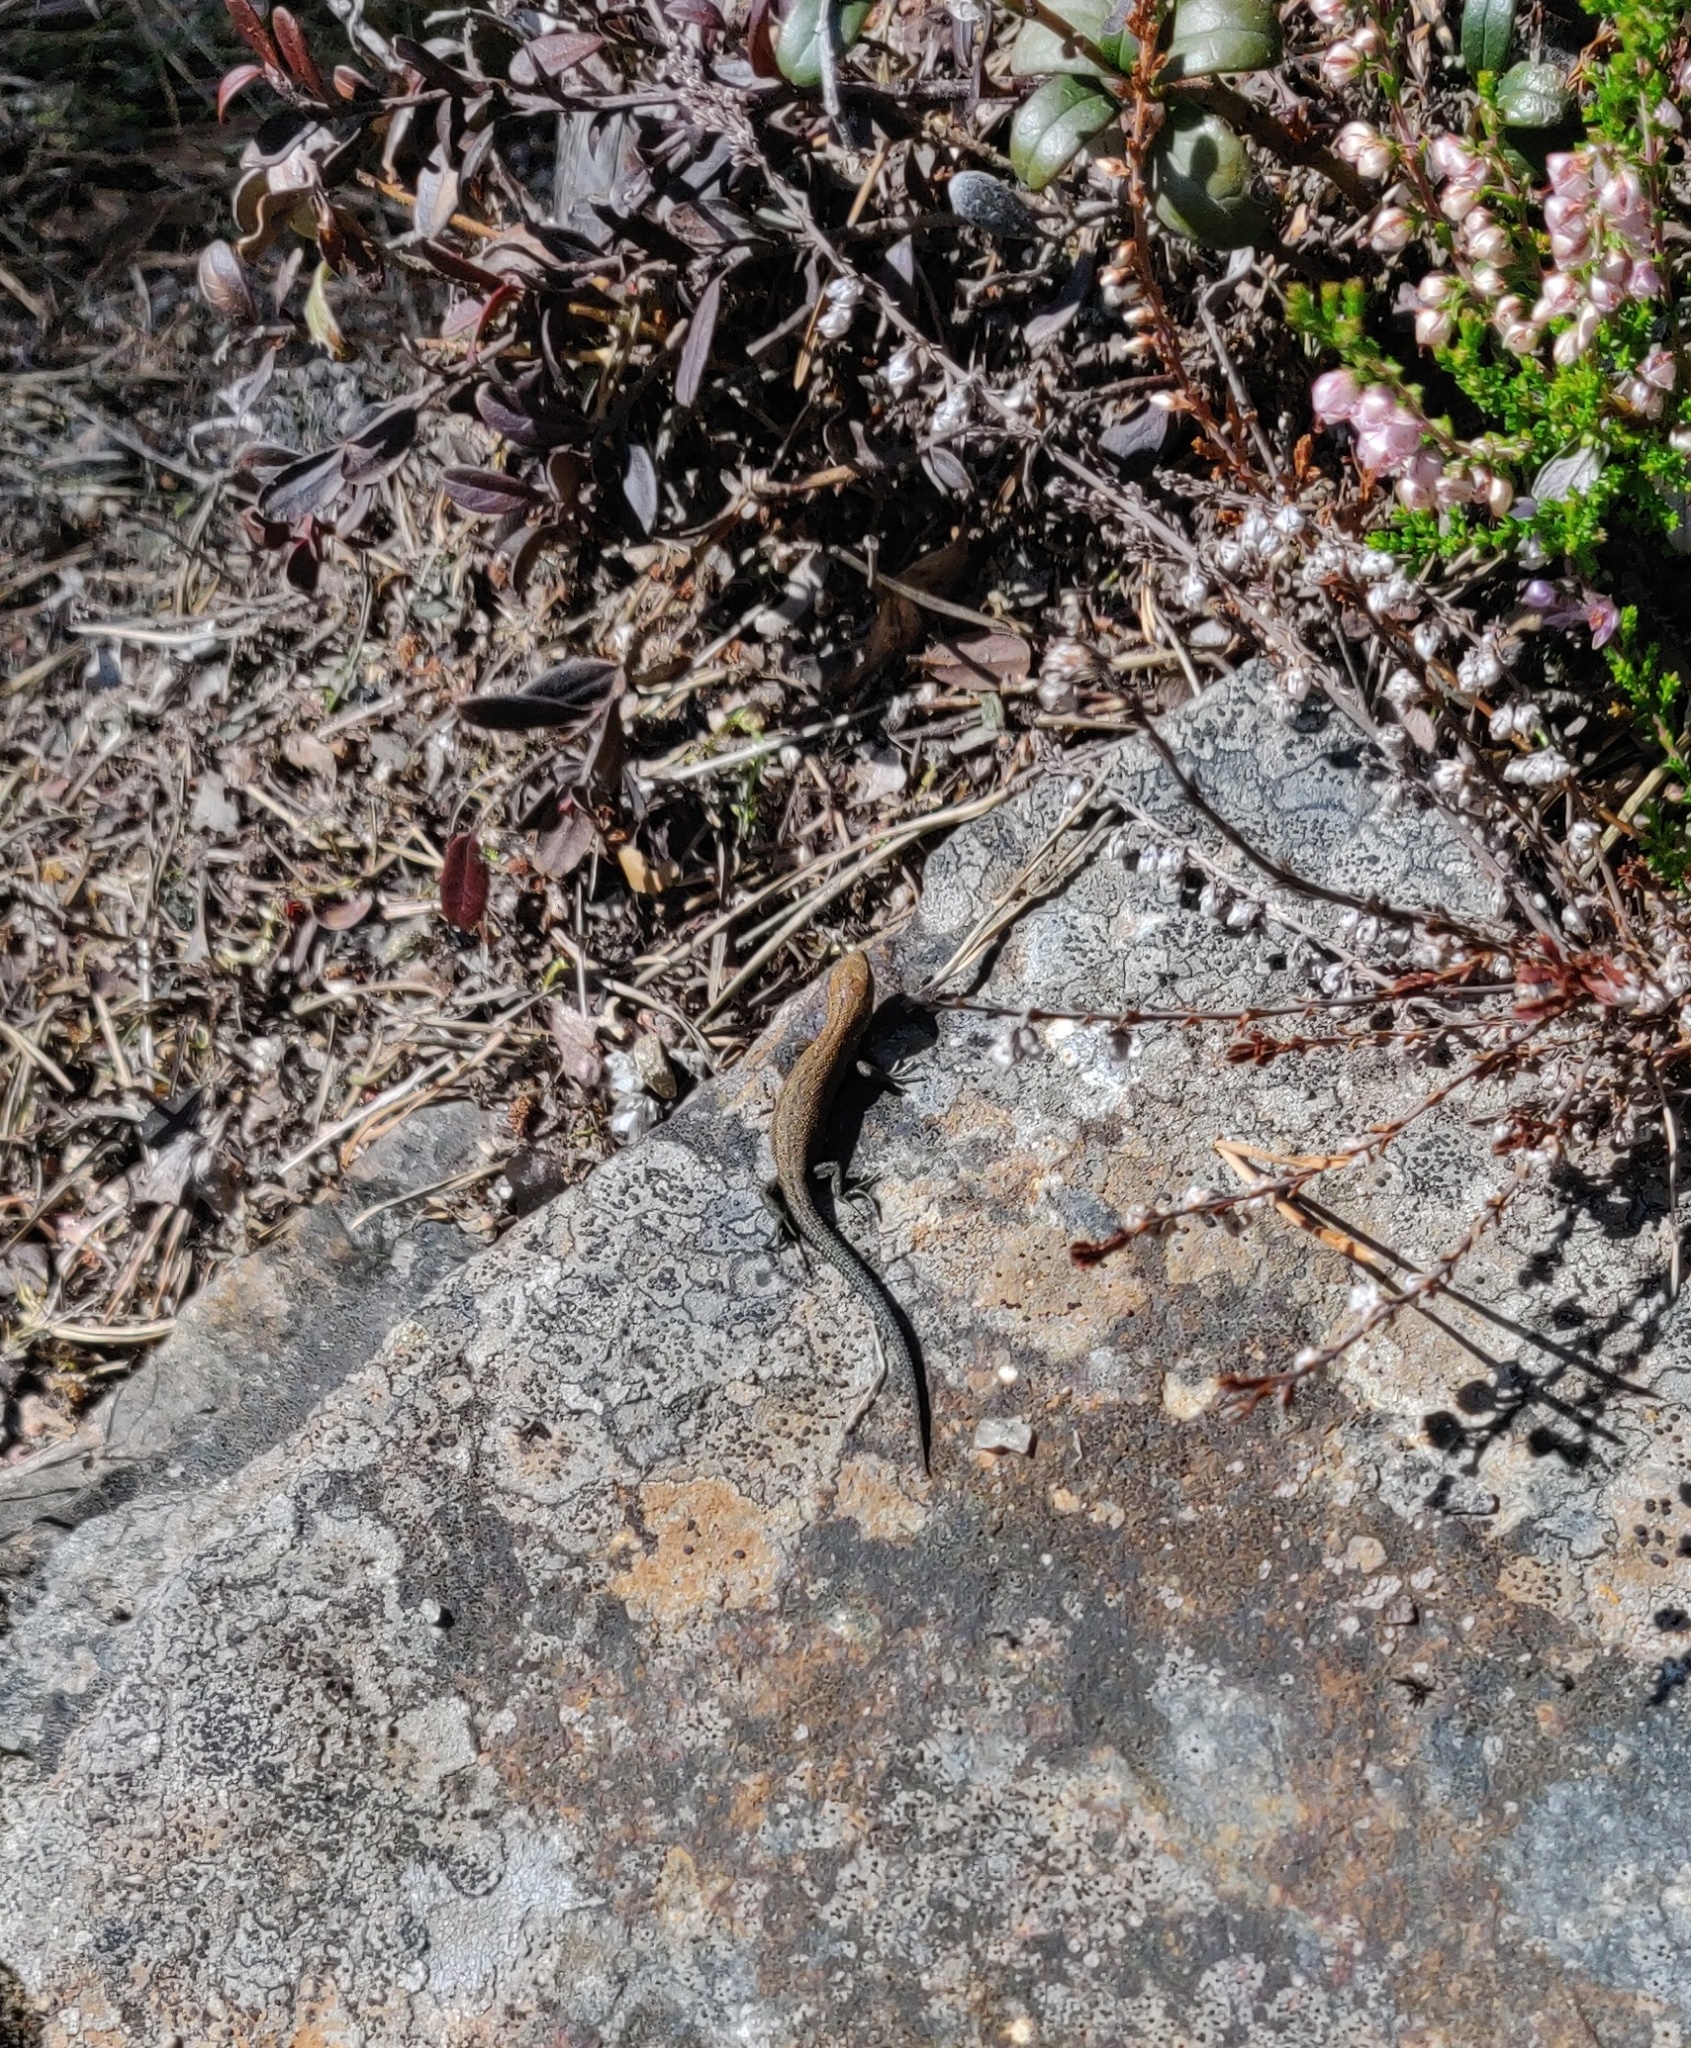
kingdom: Animalia
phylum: Chordata
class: Squamata
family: Lacertidae
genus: Zootoca
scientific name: Zootoca vivipara
